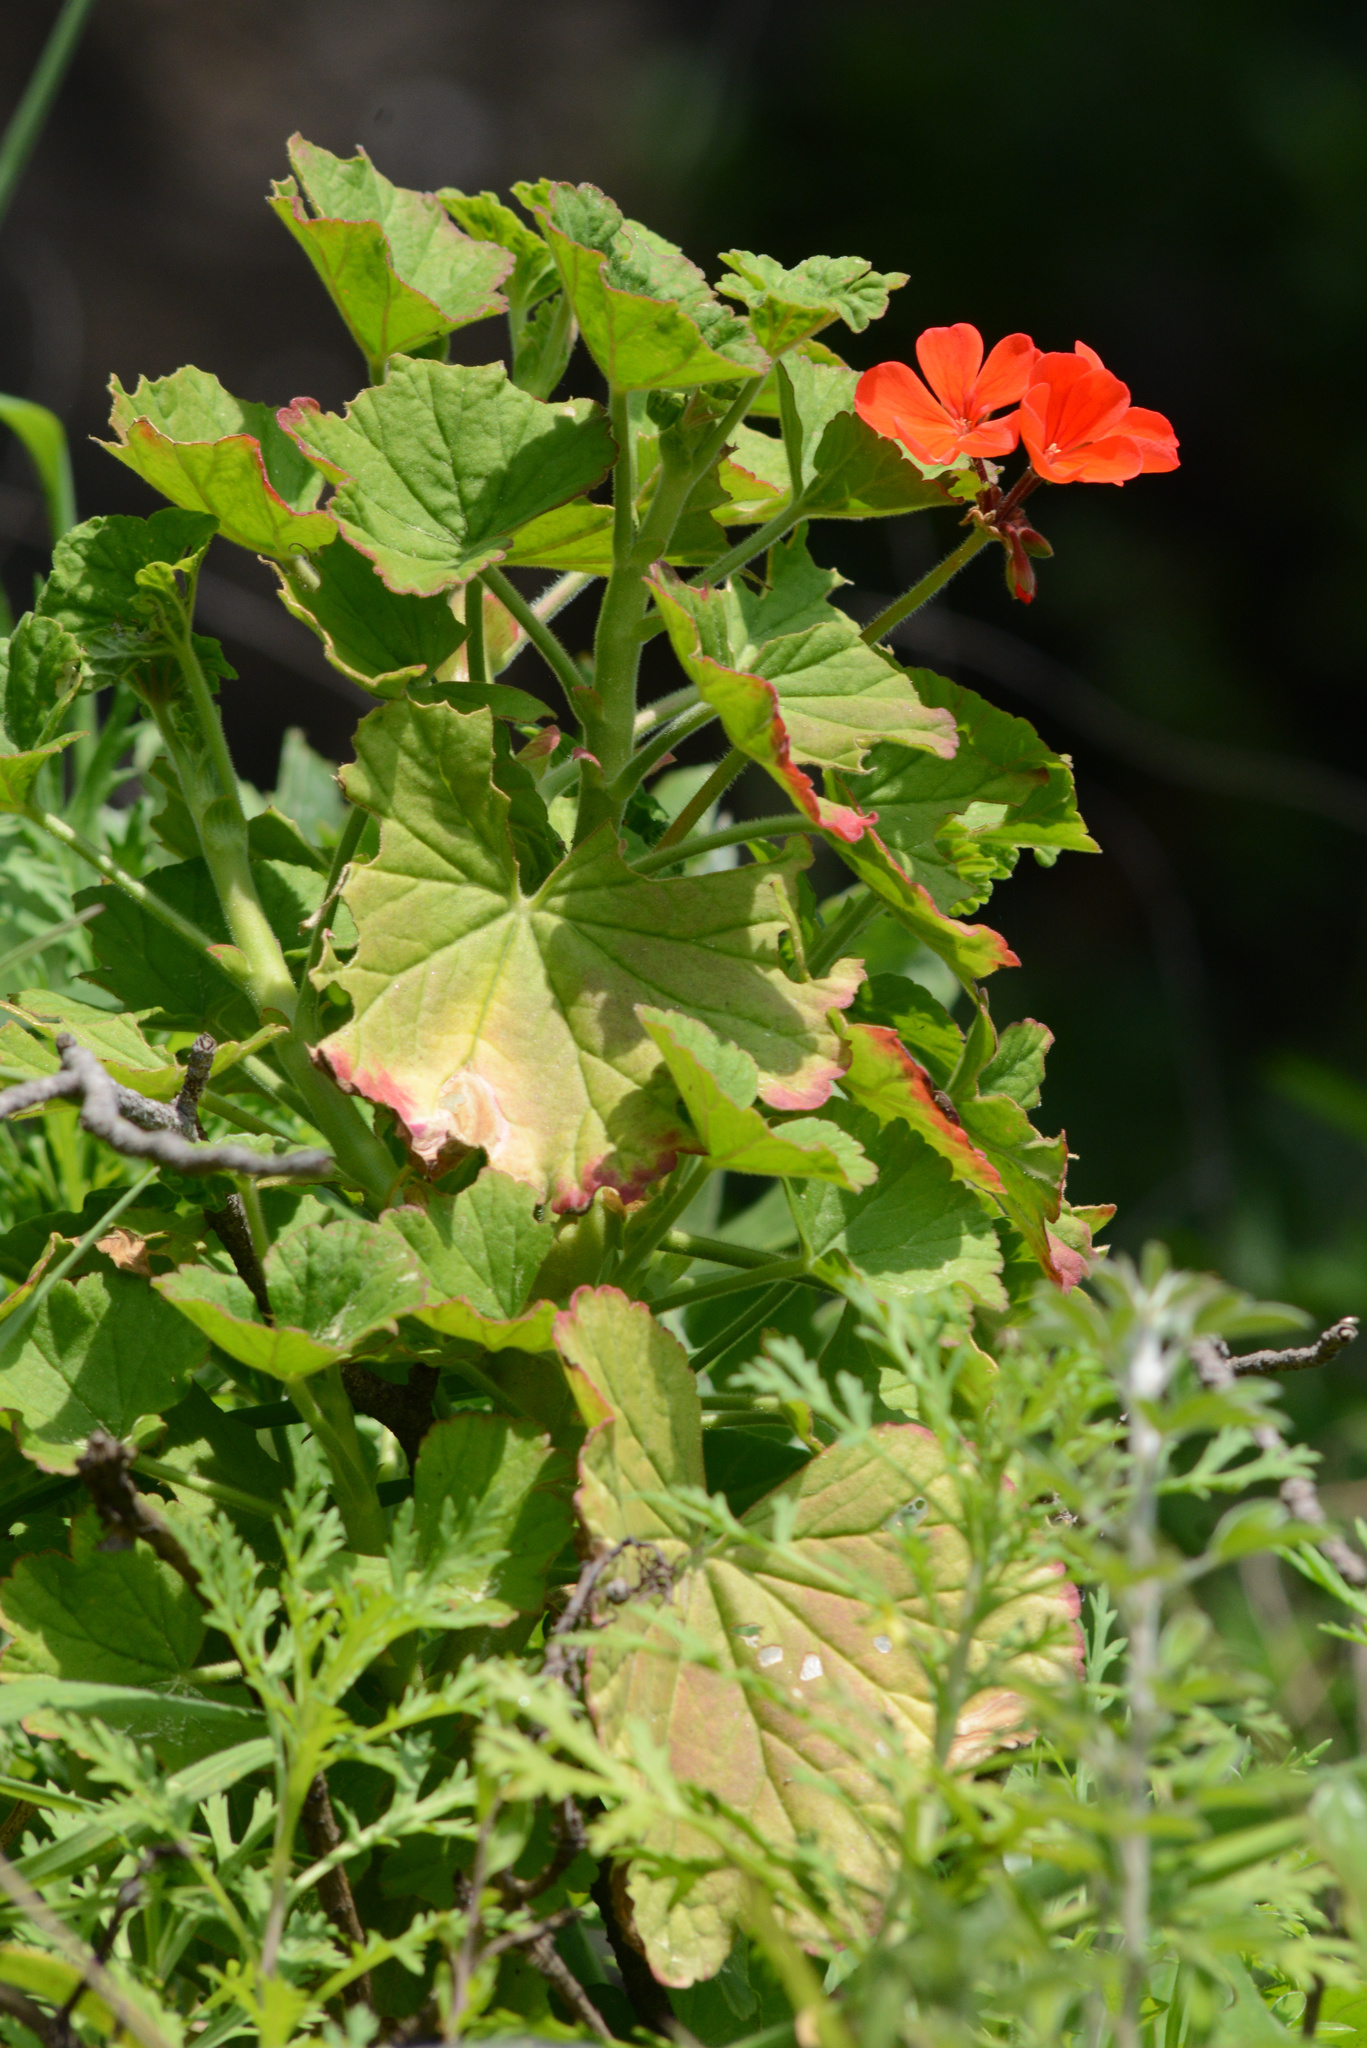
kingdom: Plantae
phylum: Tracheophyta
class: Magnoliopsida
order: Geraniales
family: Geraniaceae
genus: Pelargonium
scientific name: Pelargonium hybridum
